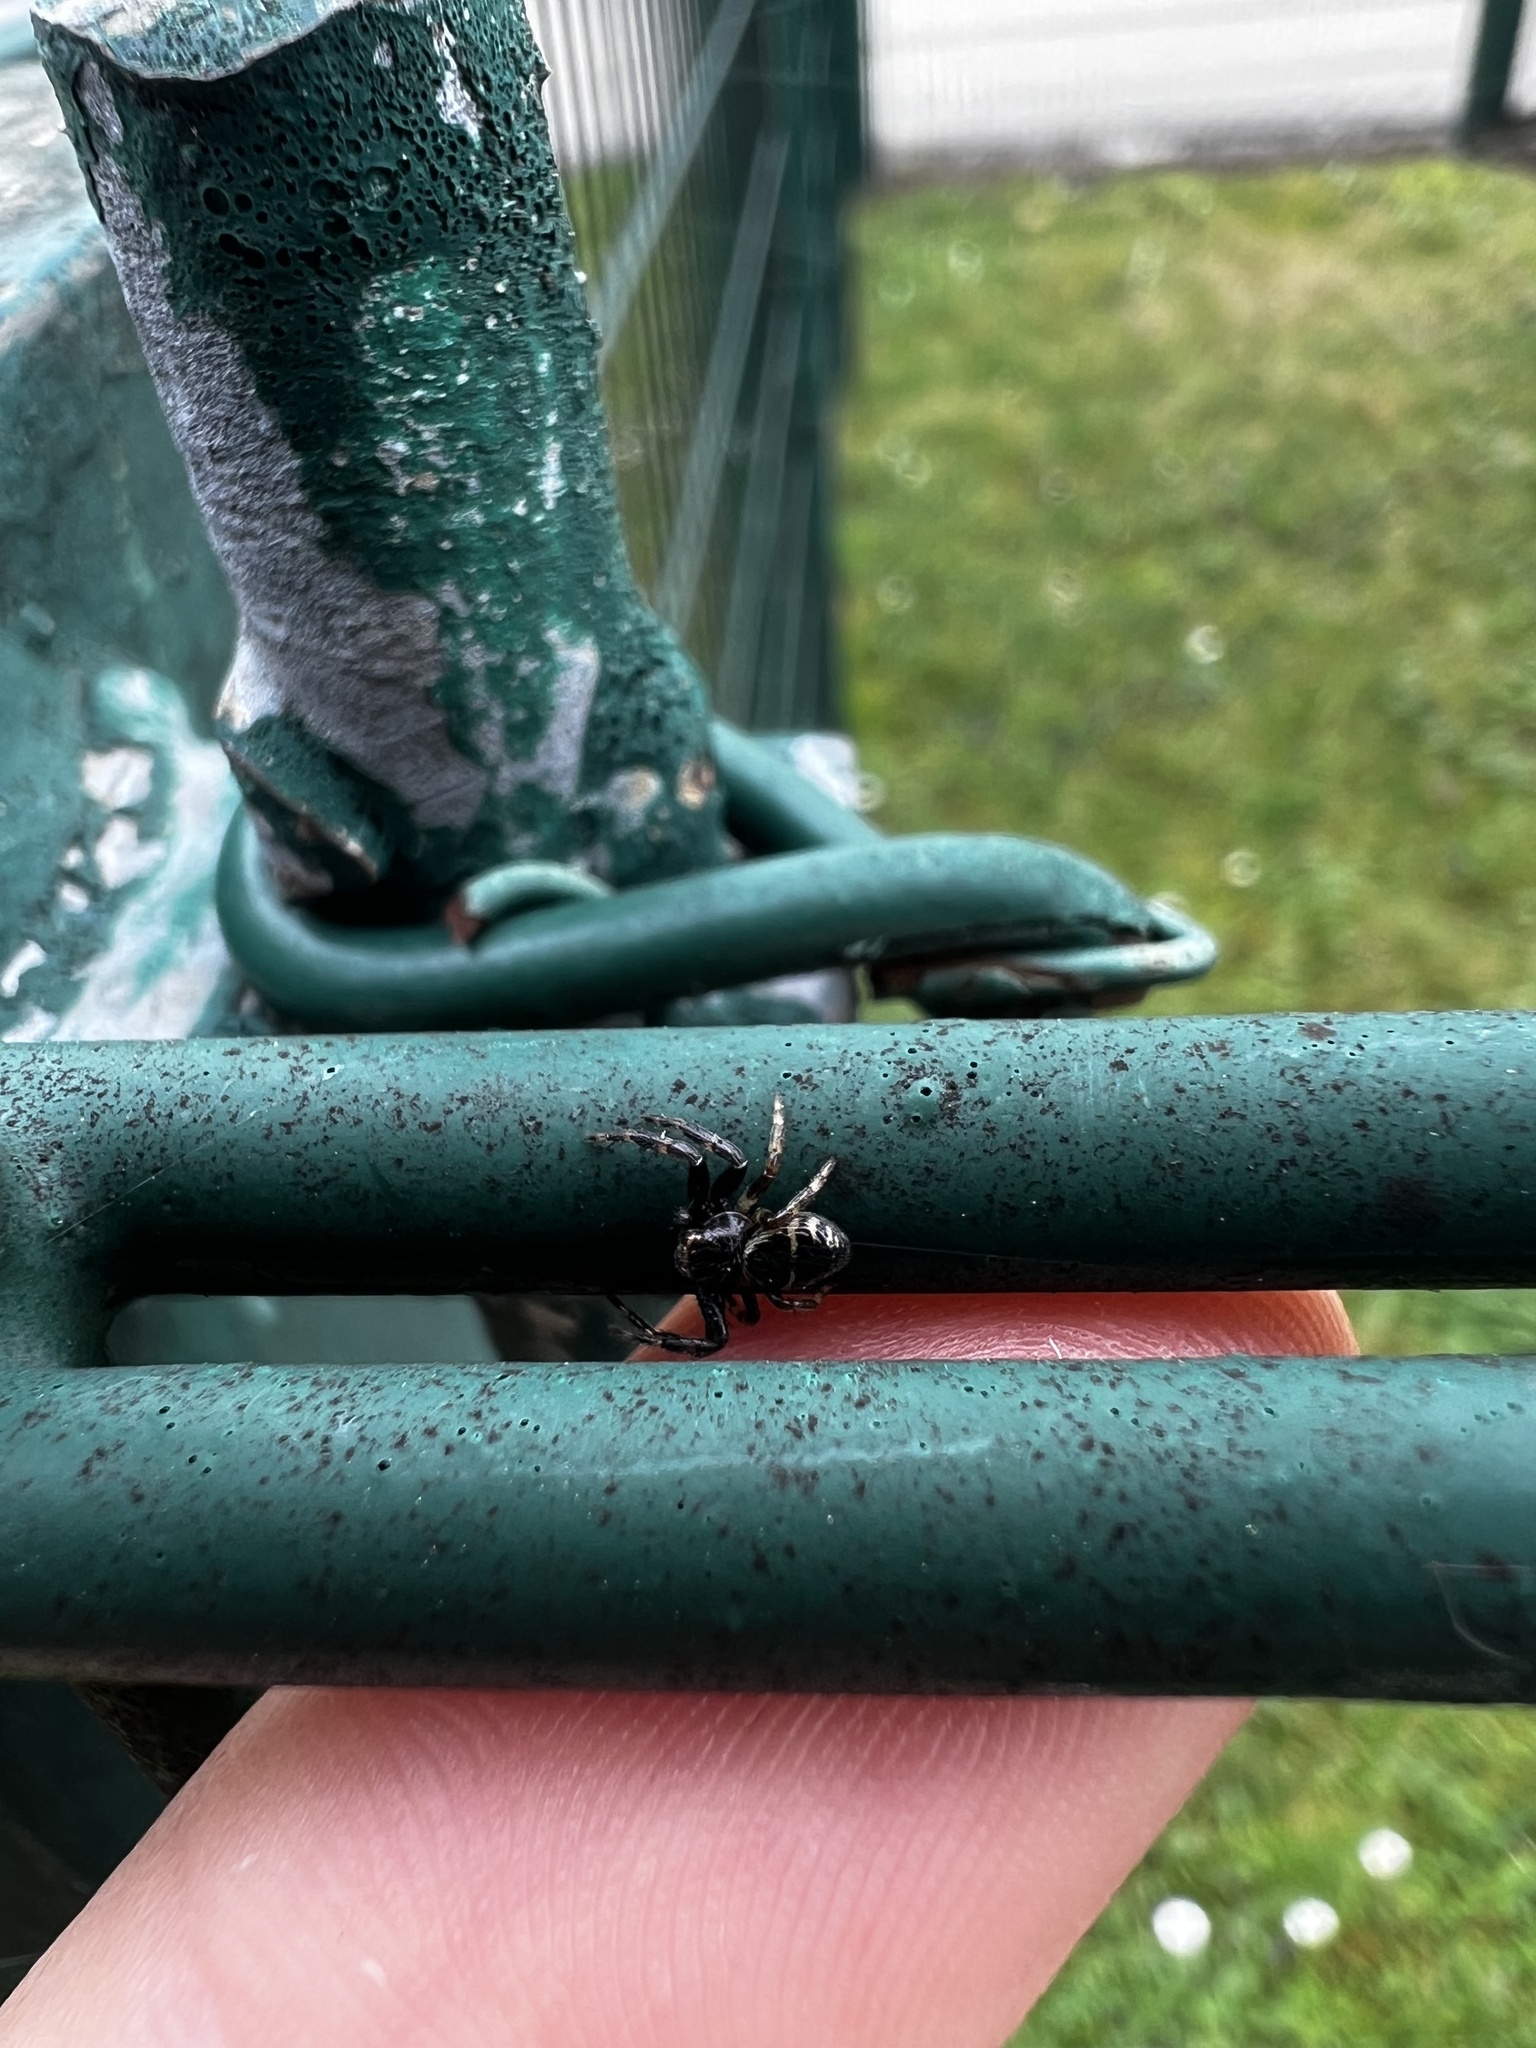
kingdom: Animalia
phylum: Arthropoda
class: Arachnida
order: Araneae
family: Thomisidae
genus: Synema
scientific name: Synema globosum
